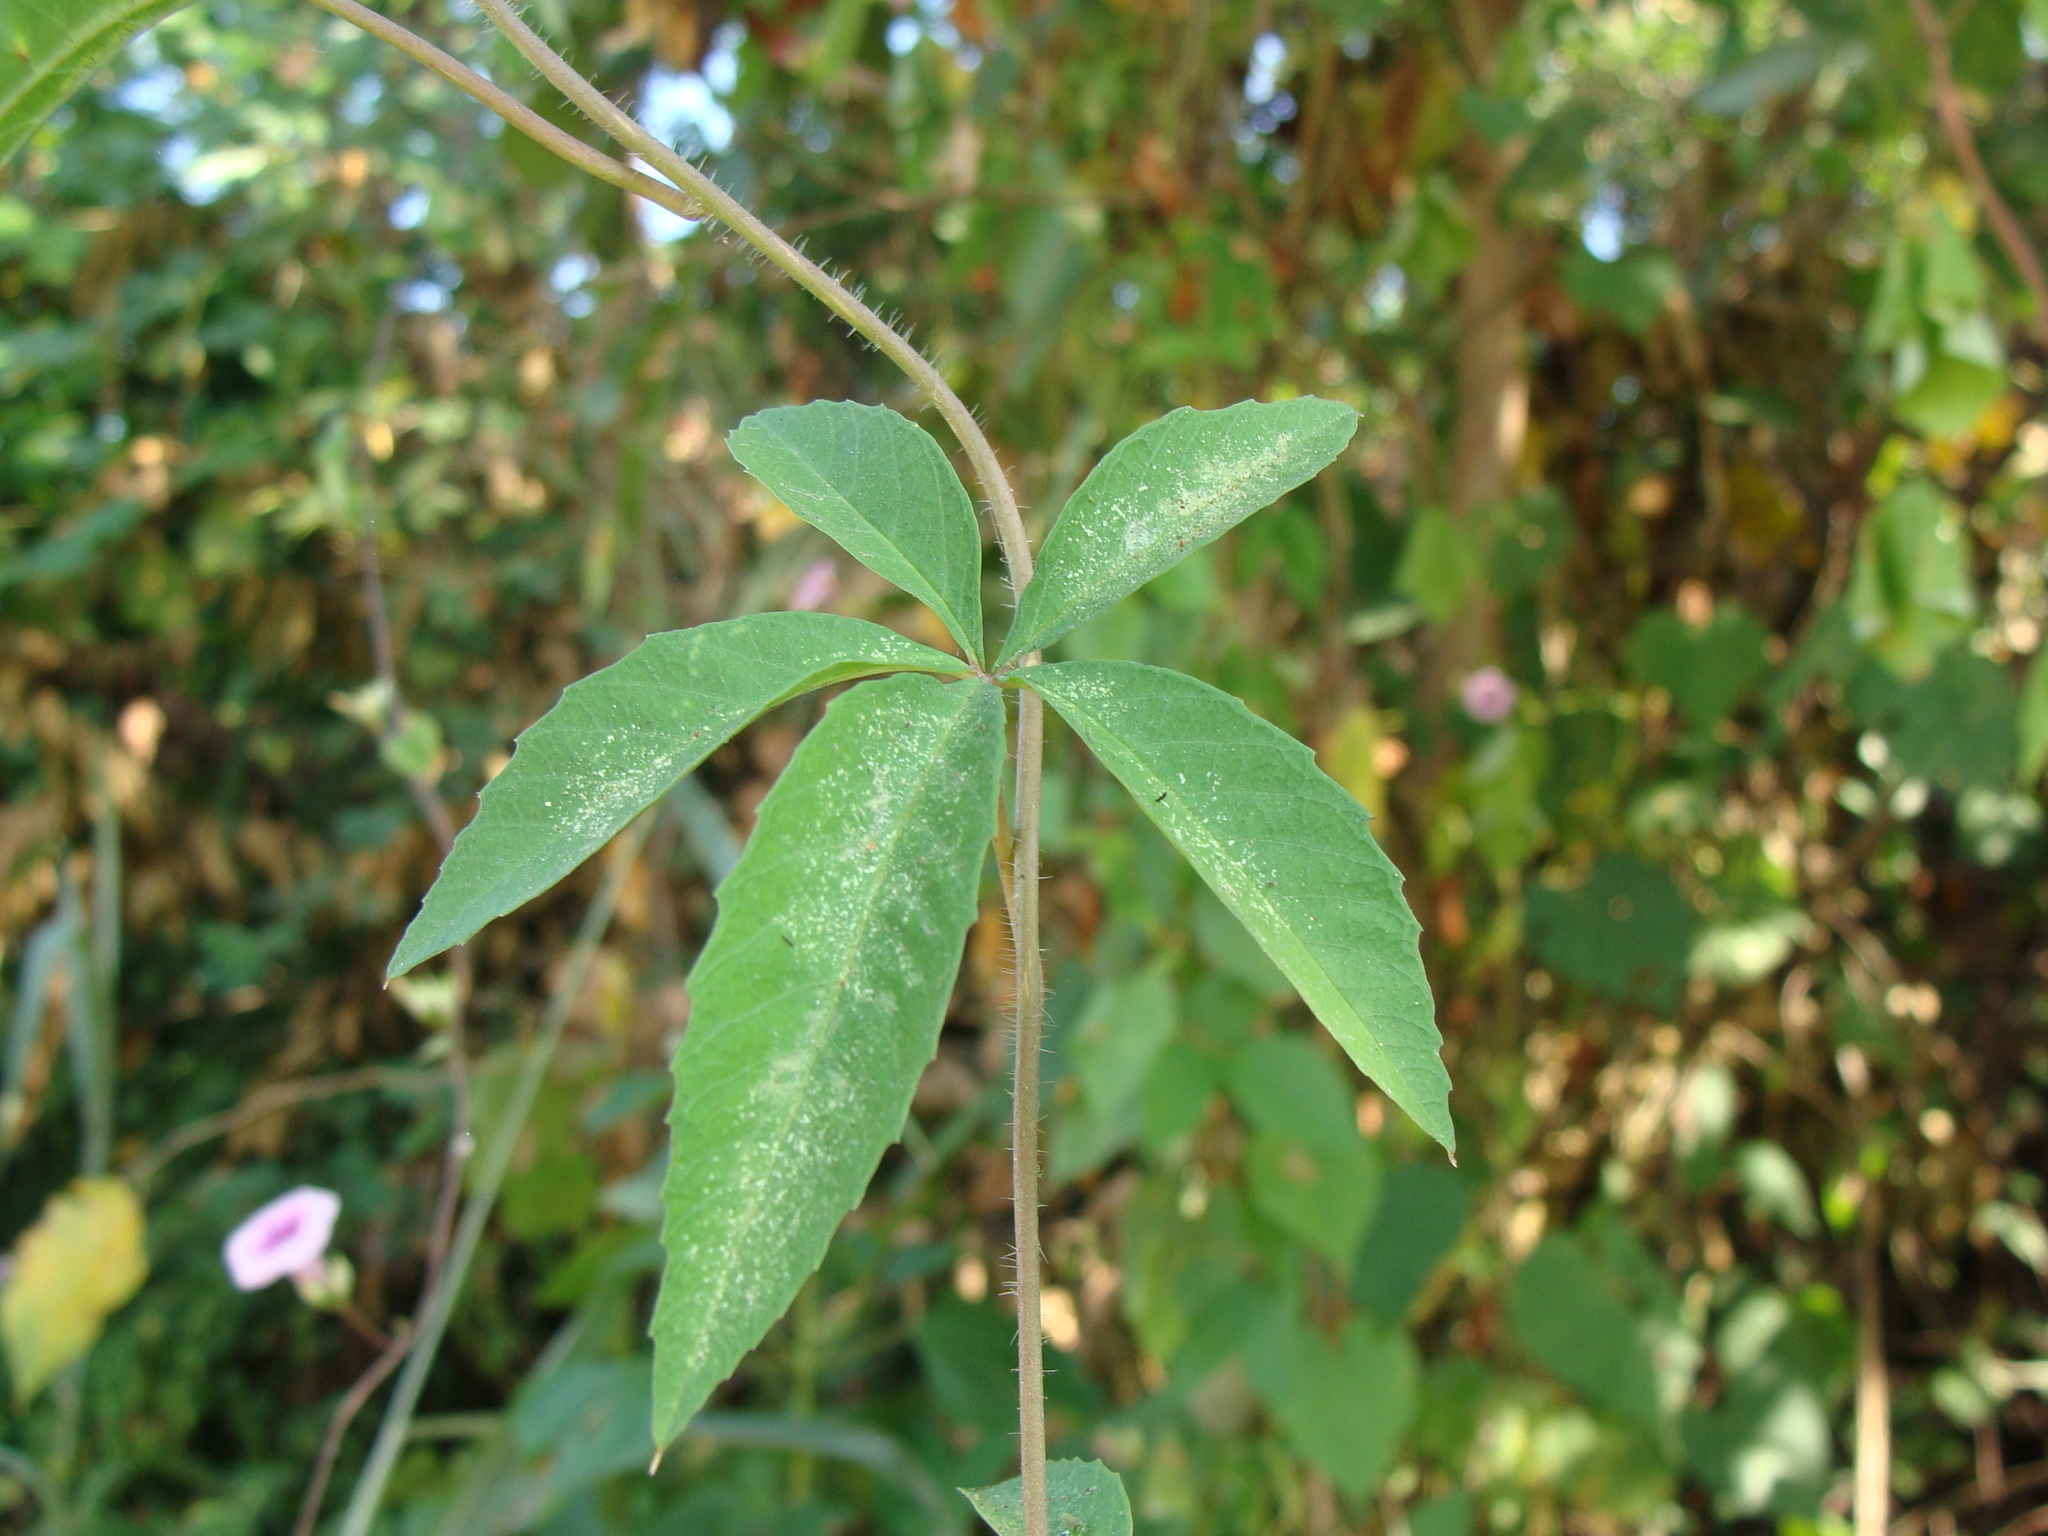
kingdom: Plantae
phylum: Tracheophyta
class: Magnoliopsida
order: Solanales
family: Convolvulaceae
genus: Distimake
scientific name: Distimake quinquefolius
